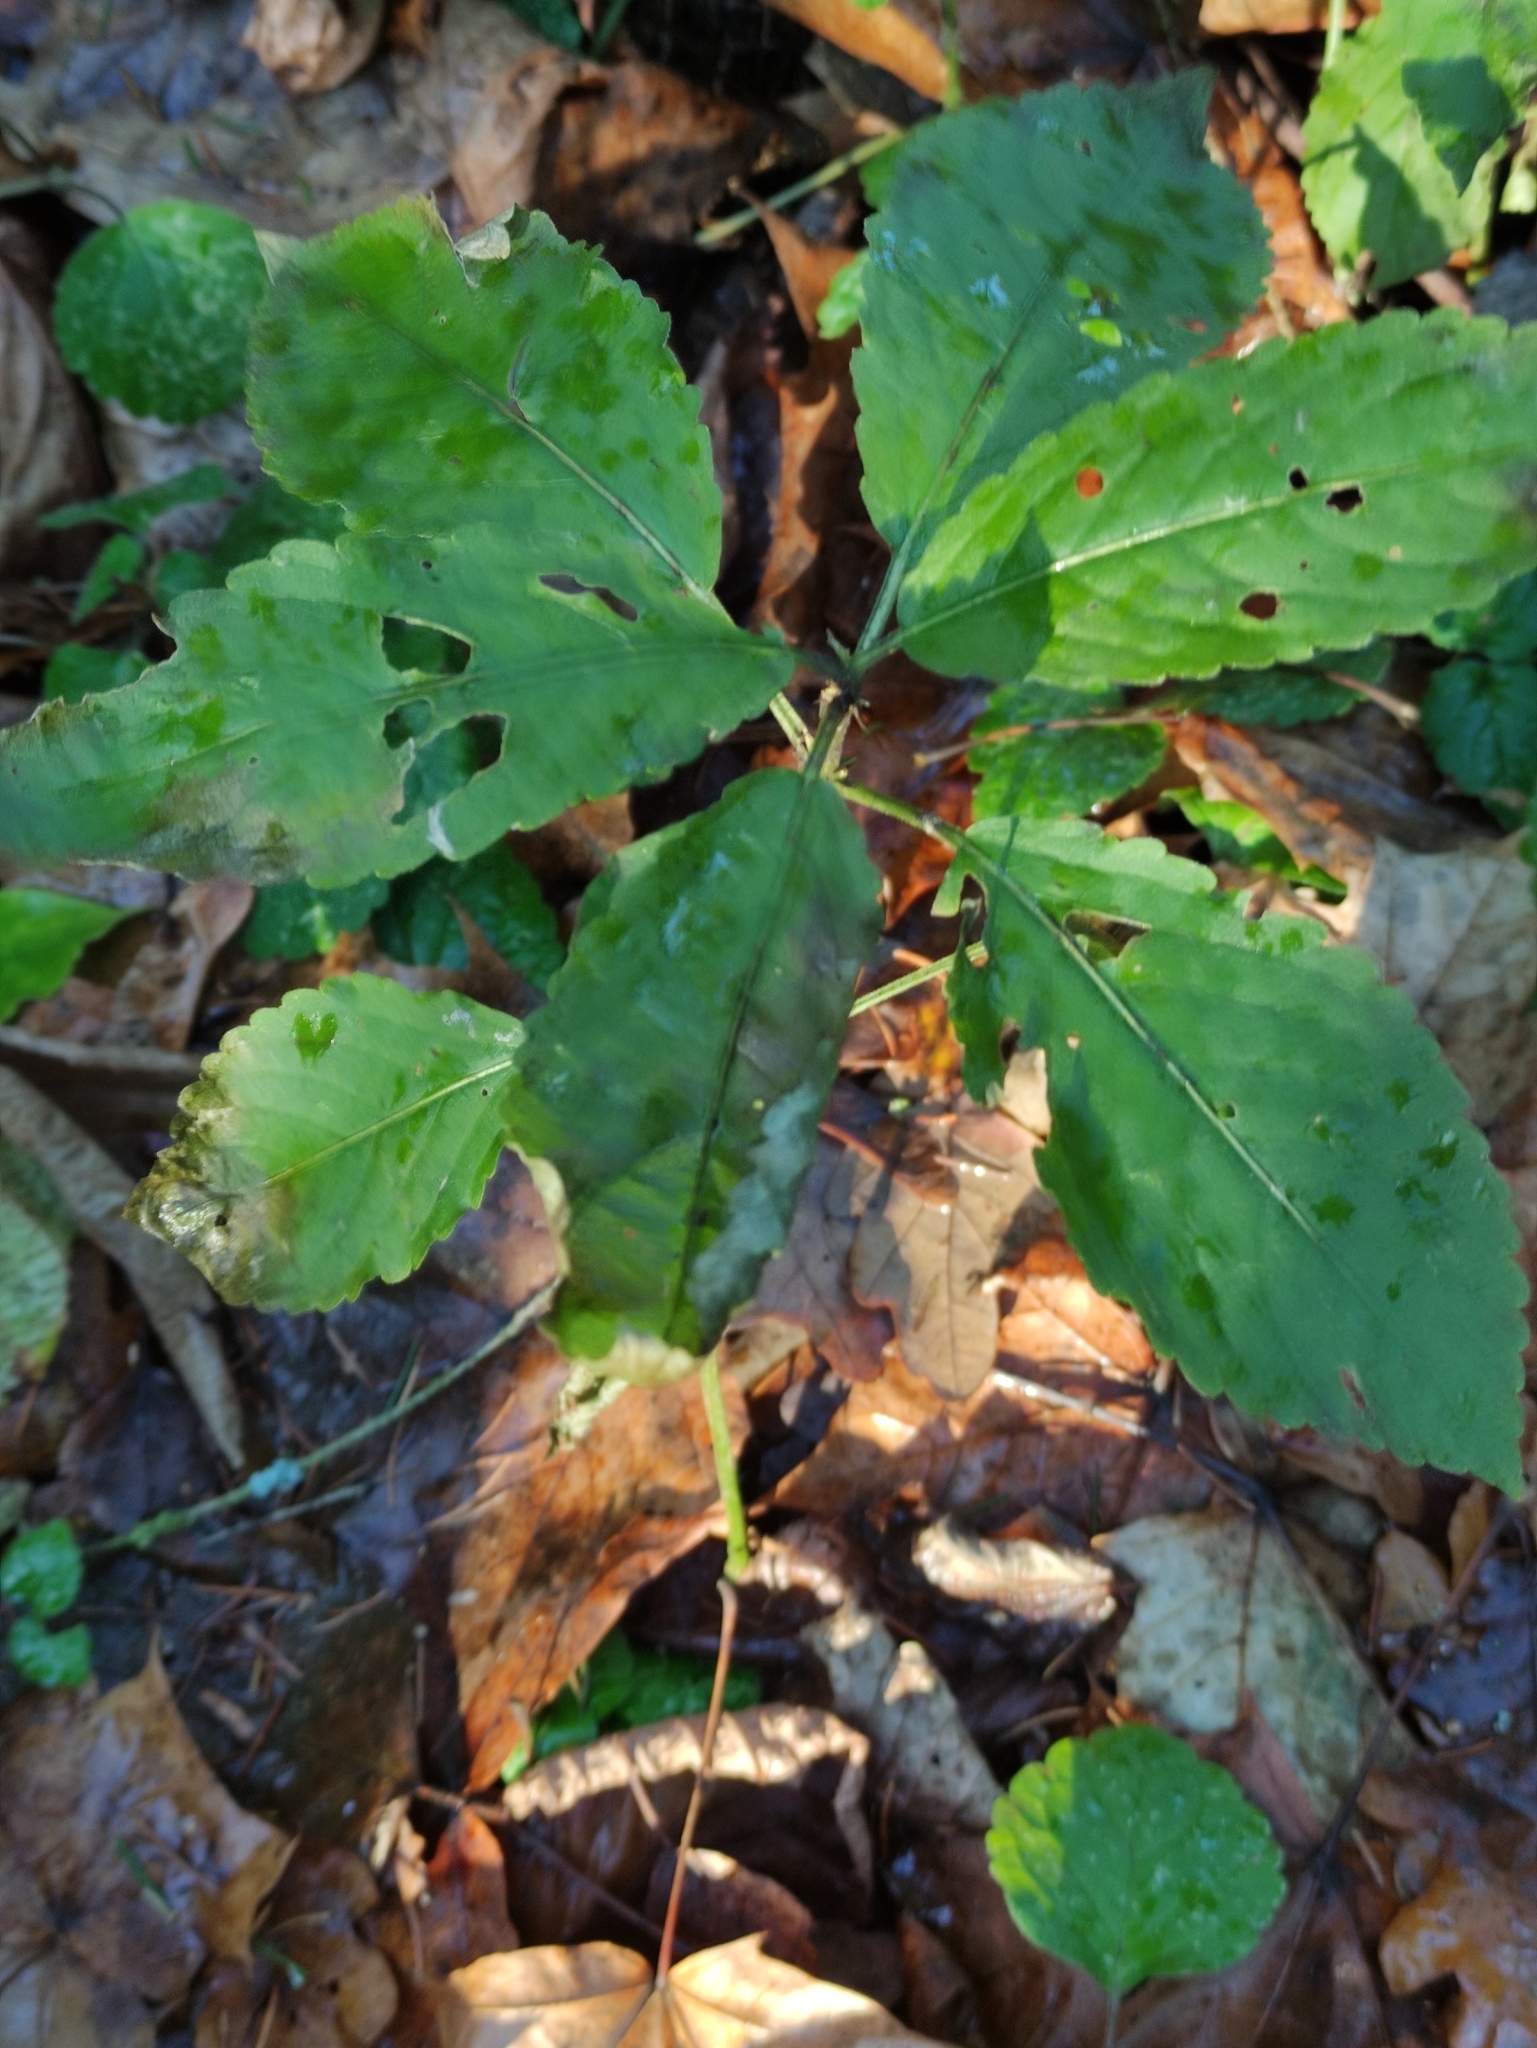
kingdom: Plantae
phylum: Tracheophyta
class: Magnoliopsida
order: Malpighiales
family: Euphorbiaceae
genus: Mercurialis
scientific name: Mercurialis perennis
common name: Dog mercury
